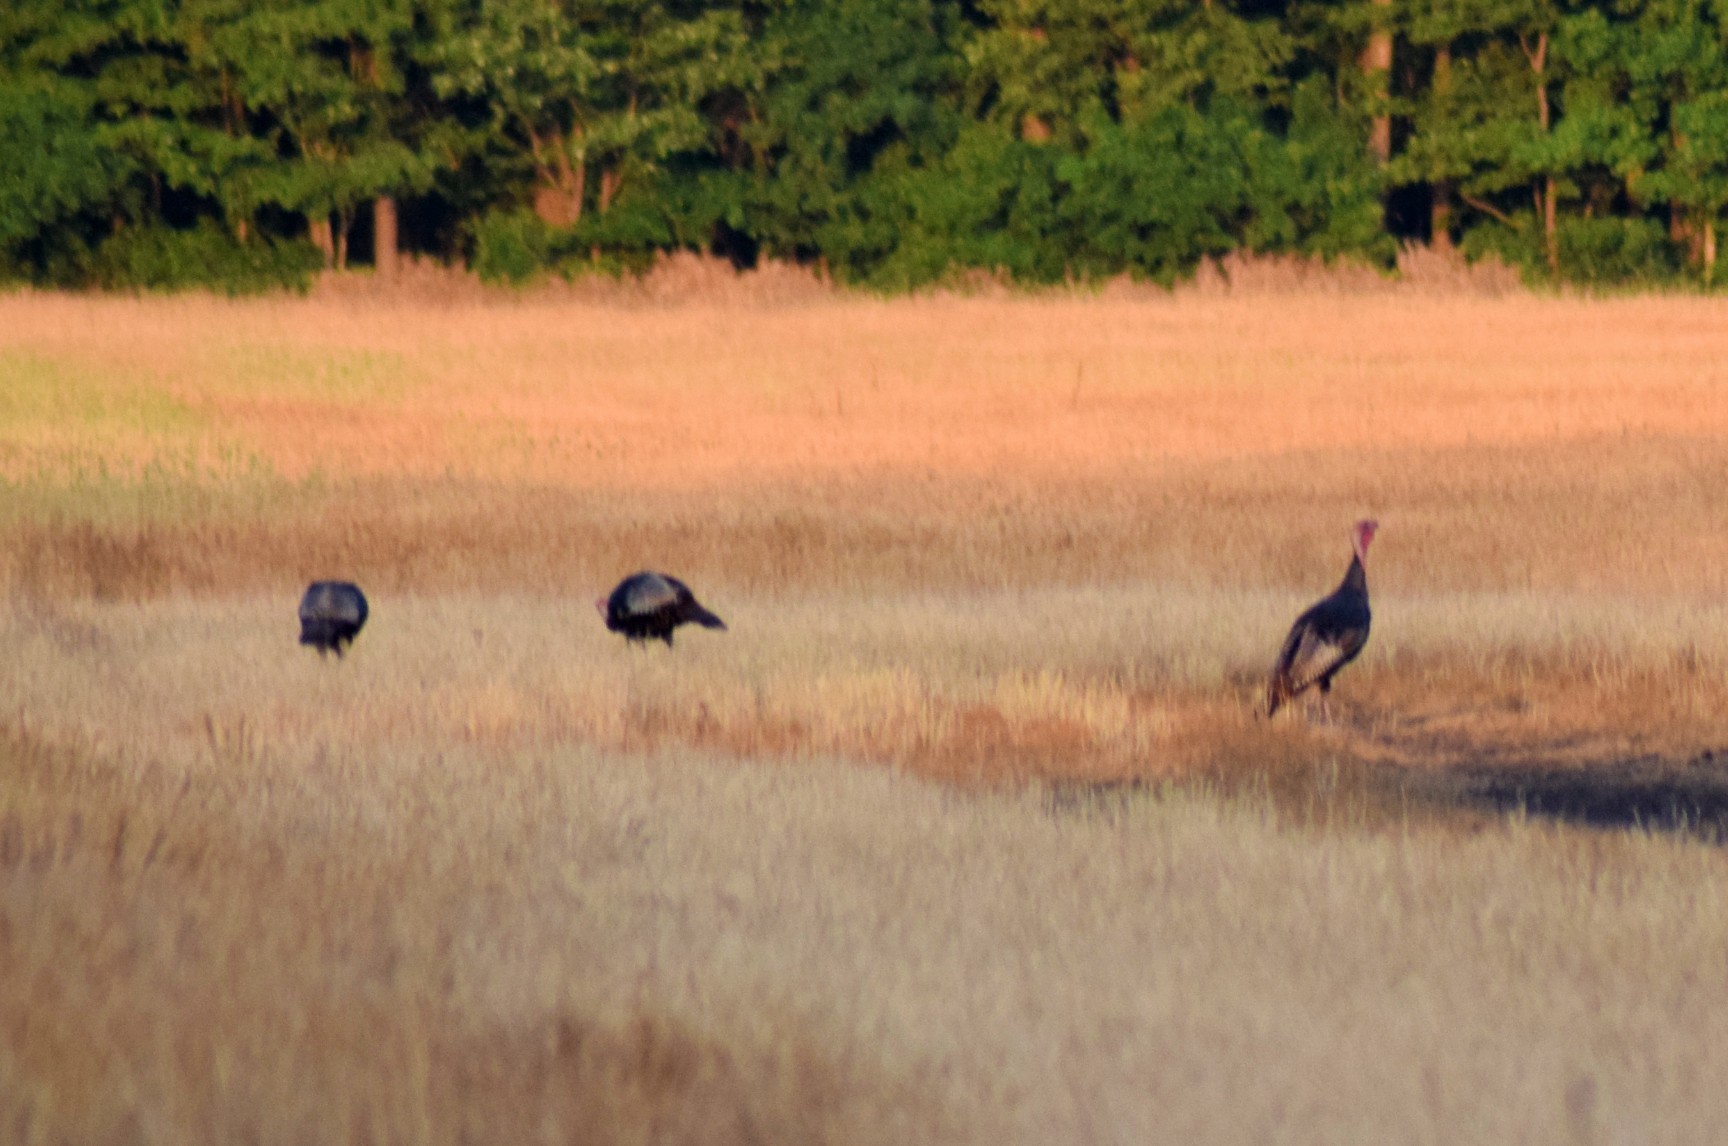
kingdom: Animalia
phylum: Chordata
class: Aves
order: Galliformes
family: Phasianidae
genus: Meleagris
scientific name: Meleagris gallopavo
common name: Wild turkey
